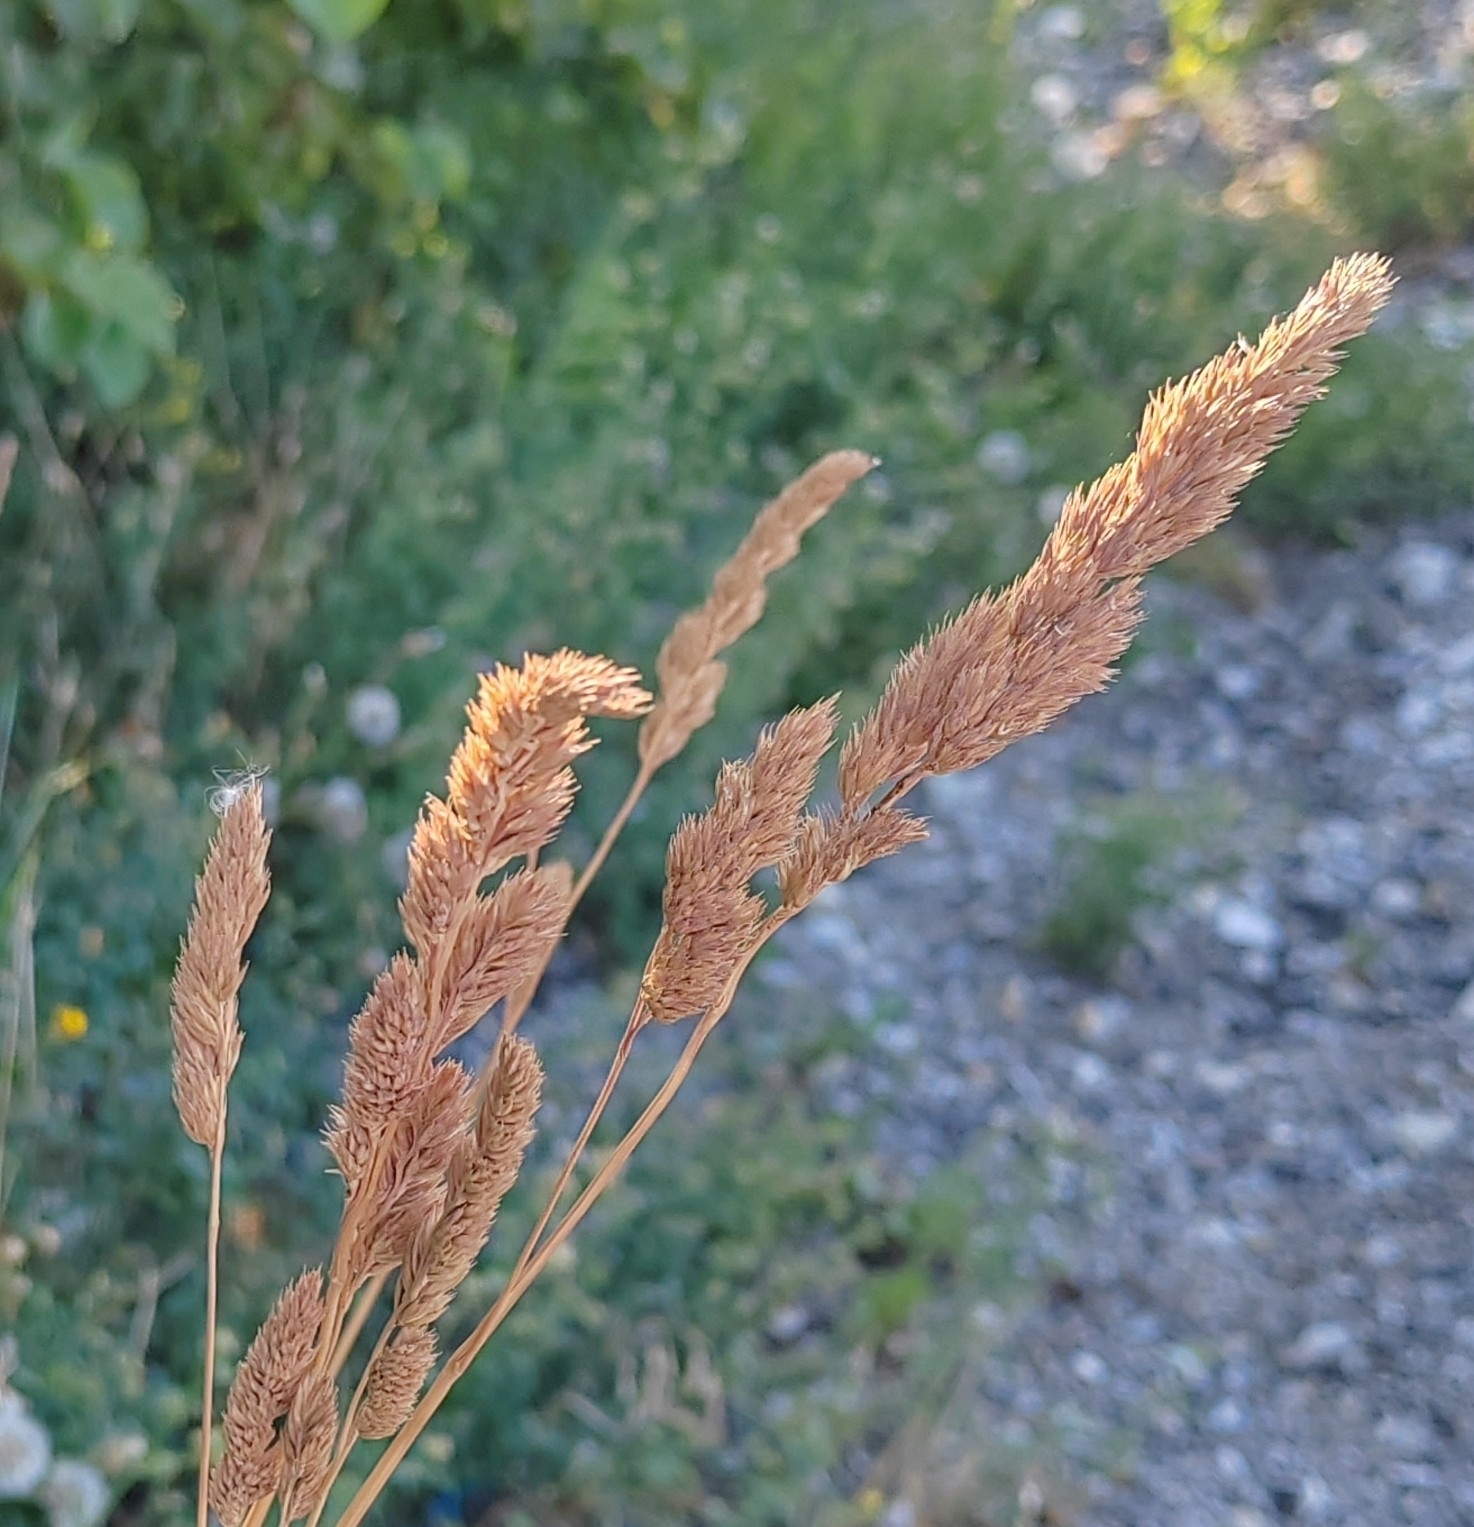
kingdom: Plantae
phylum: Tracheophyta
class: Liliopsida
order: Poales
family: Poaceae
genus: Dactylis
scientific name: Dactylis glomerata
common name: Orchardgrass
